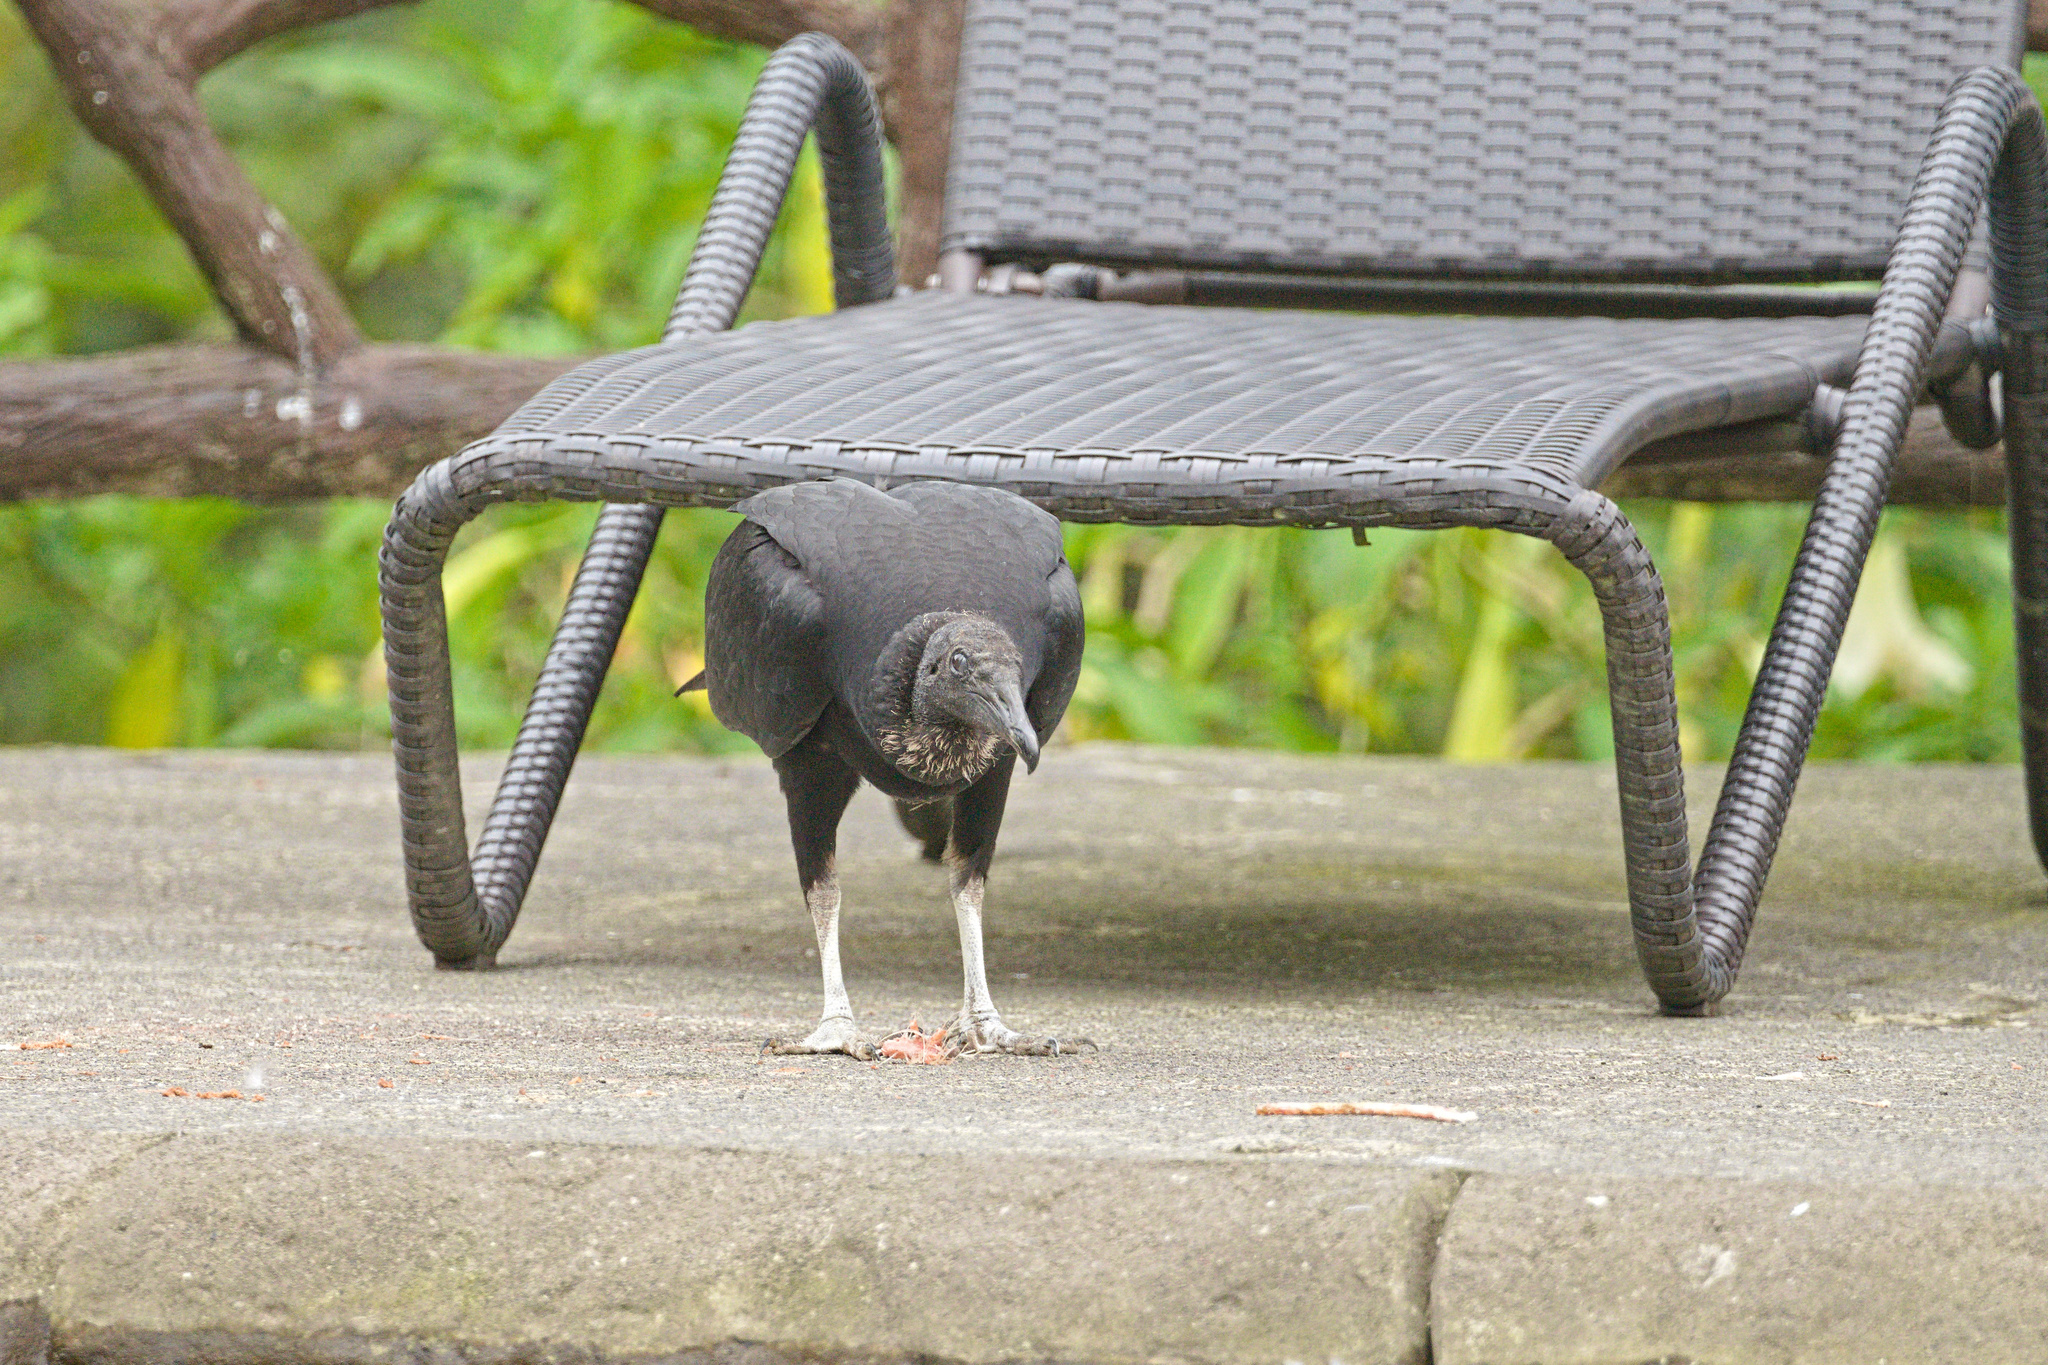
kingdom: Animalia
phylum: Chordata
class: Aves
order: Accipitriformes
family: Cathartidae
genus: Coragyps
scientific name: Coragyps atratus
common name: Black vulture
